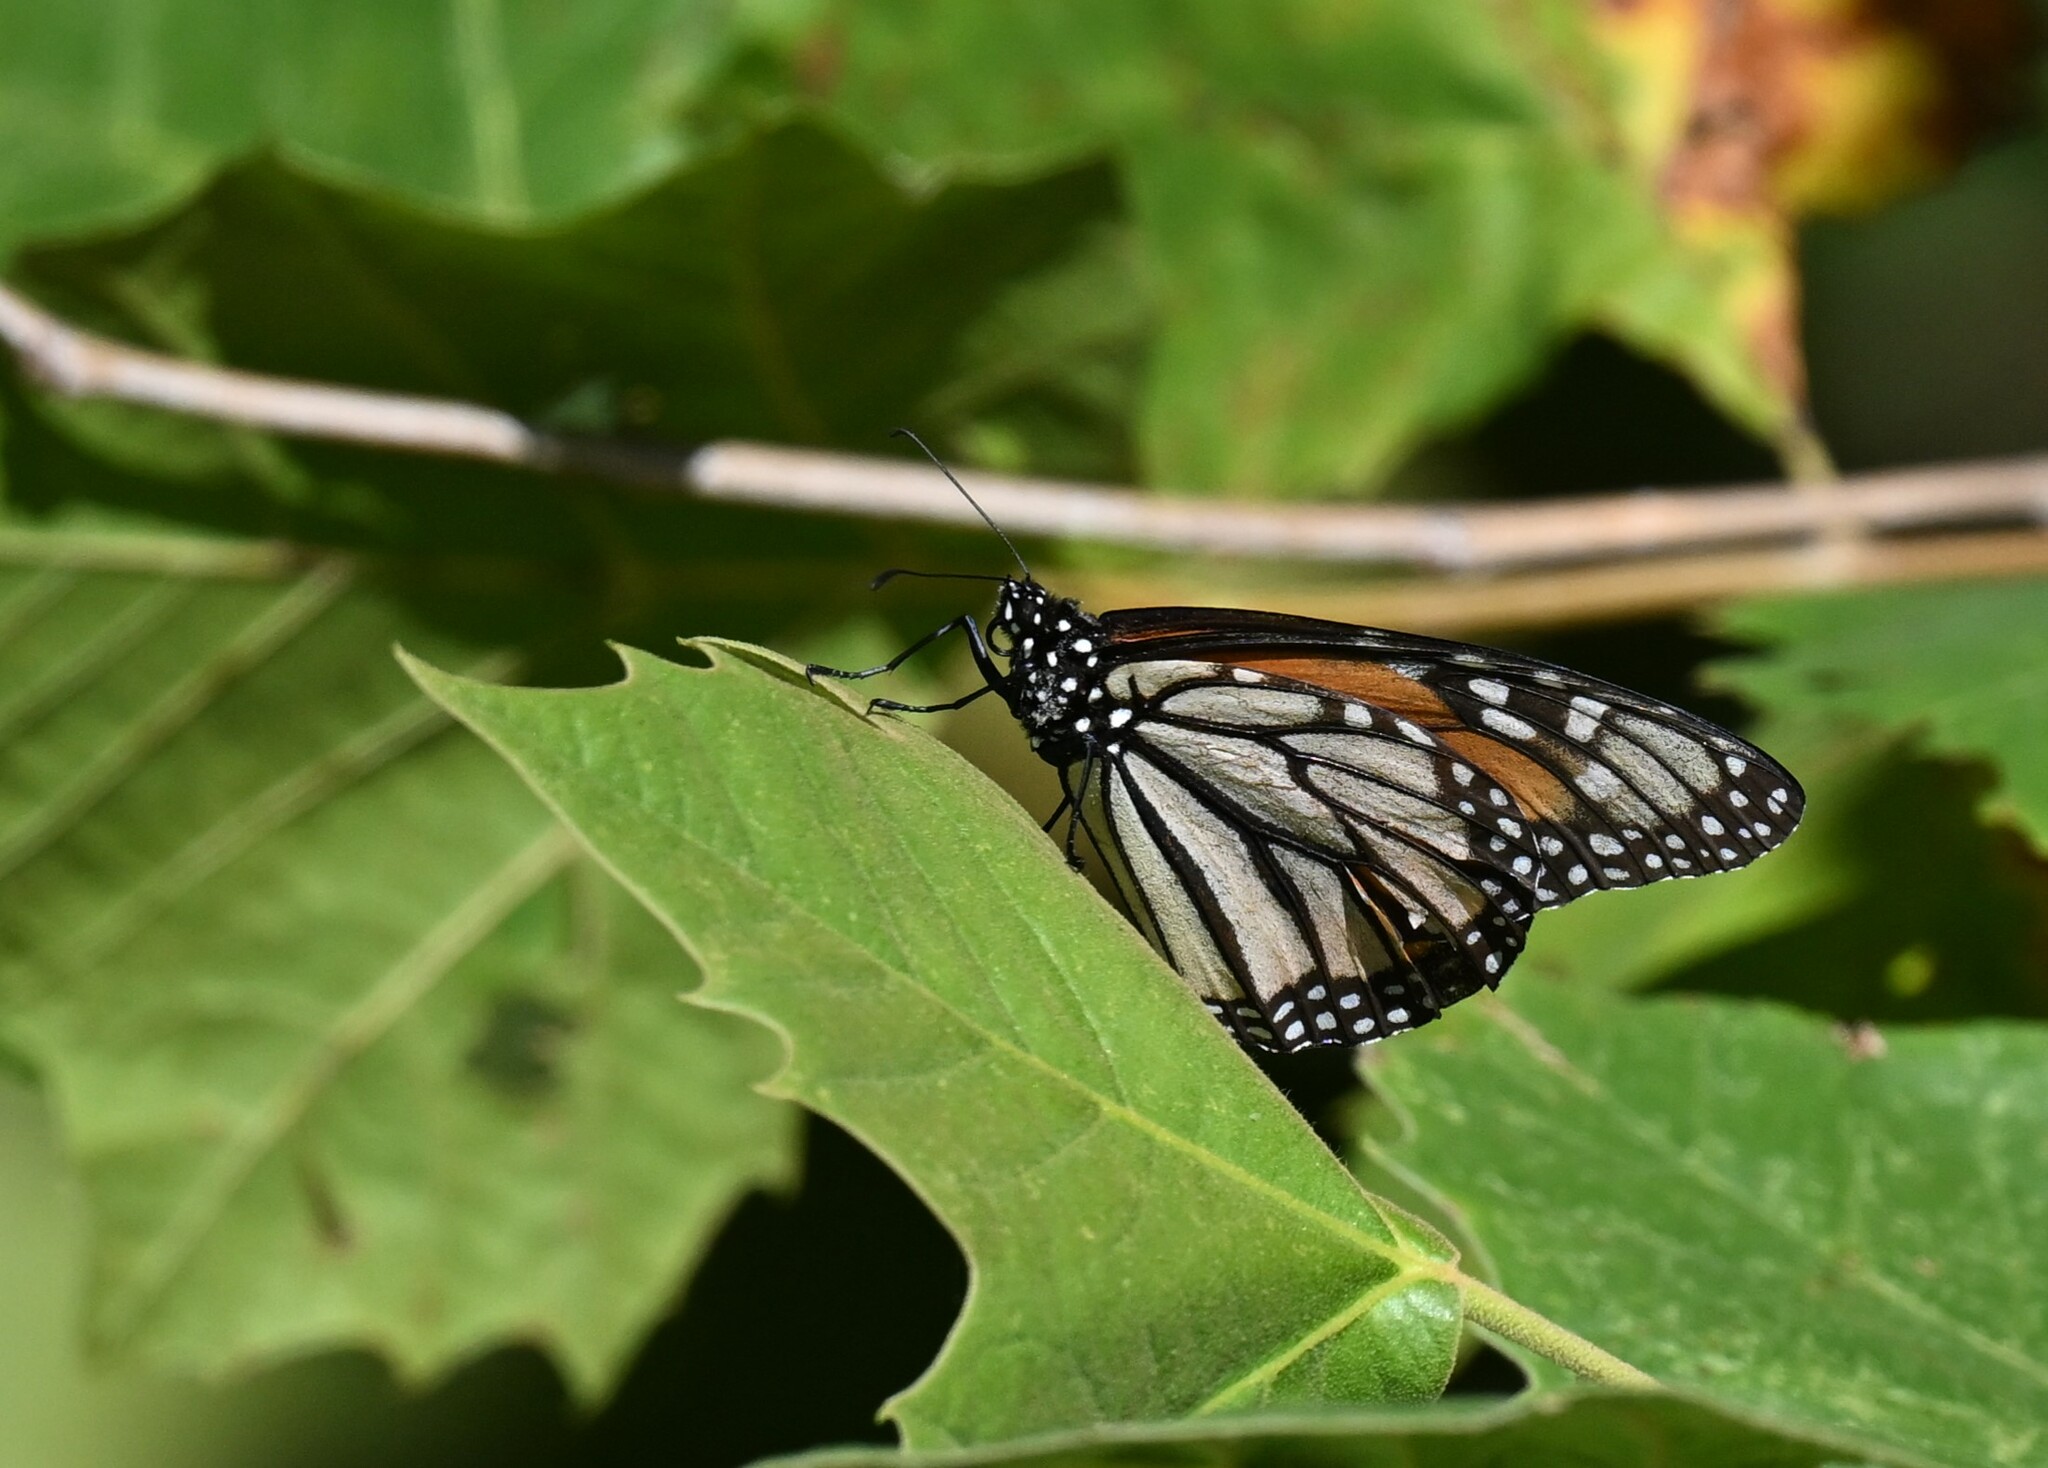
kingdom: Animalia
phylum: Arthropoda
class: Insecta
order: Lepidoptera
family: Nymphalidae
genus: Danaus
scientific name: Danaus plexippus
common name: Monarch
